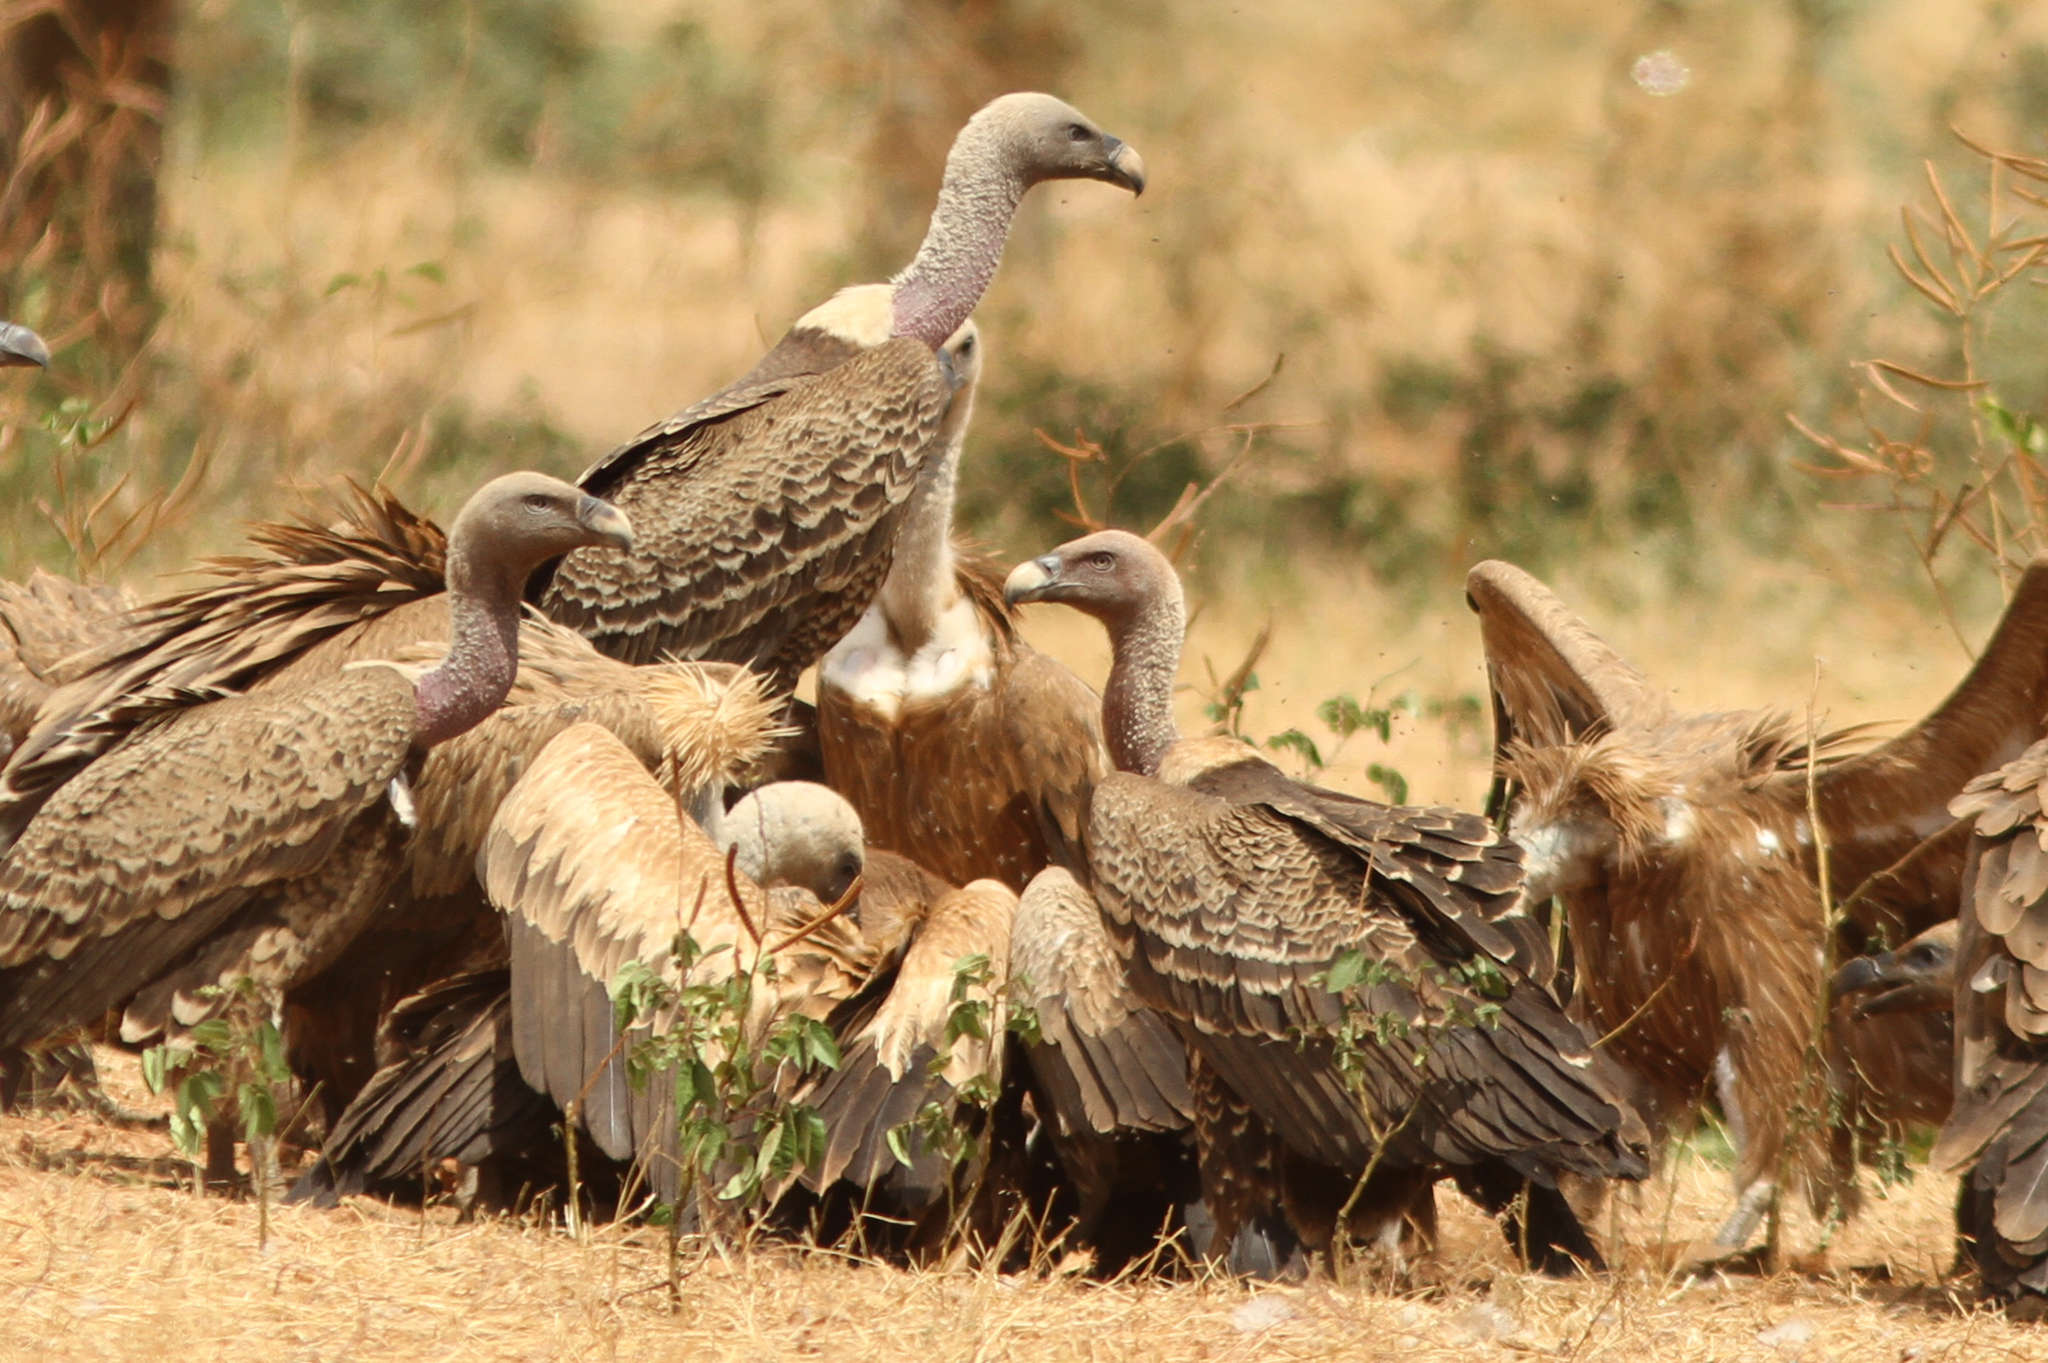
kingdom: Animalia
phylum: Chordata
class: Aves
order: Accipitriformes
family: Accipitridae
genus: Gyps
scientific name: Gyps rueppellii
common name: Rüppell's vulture
